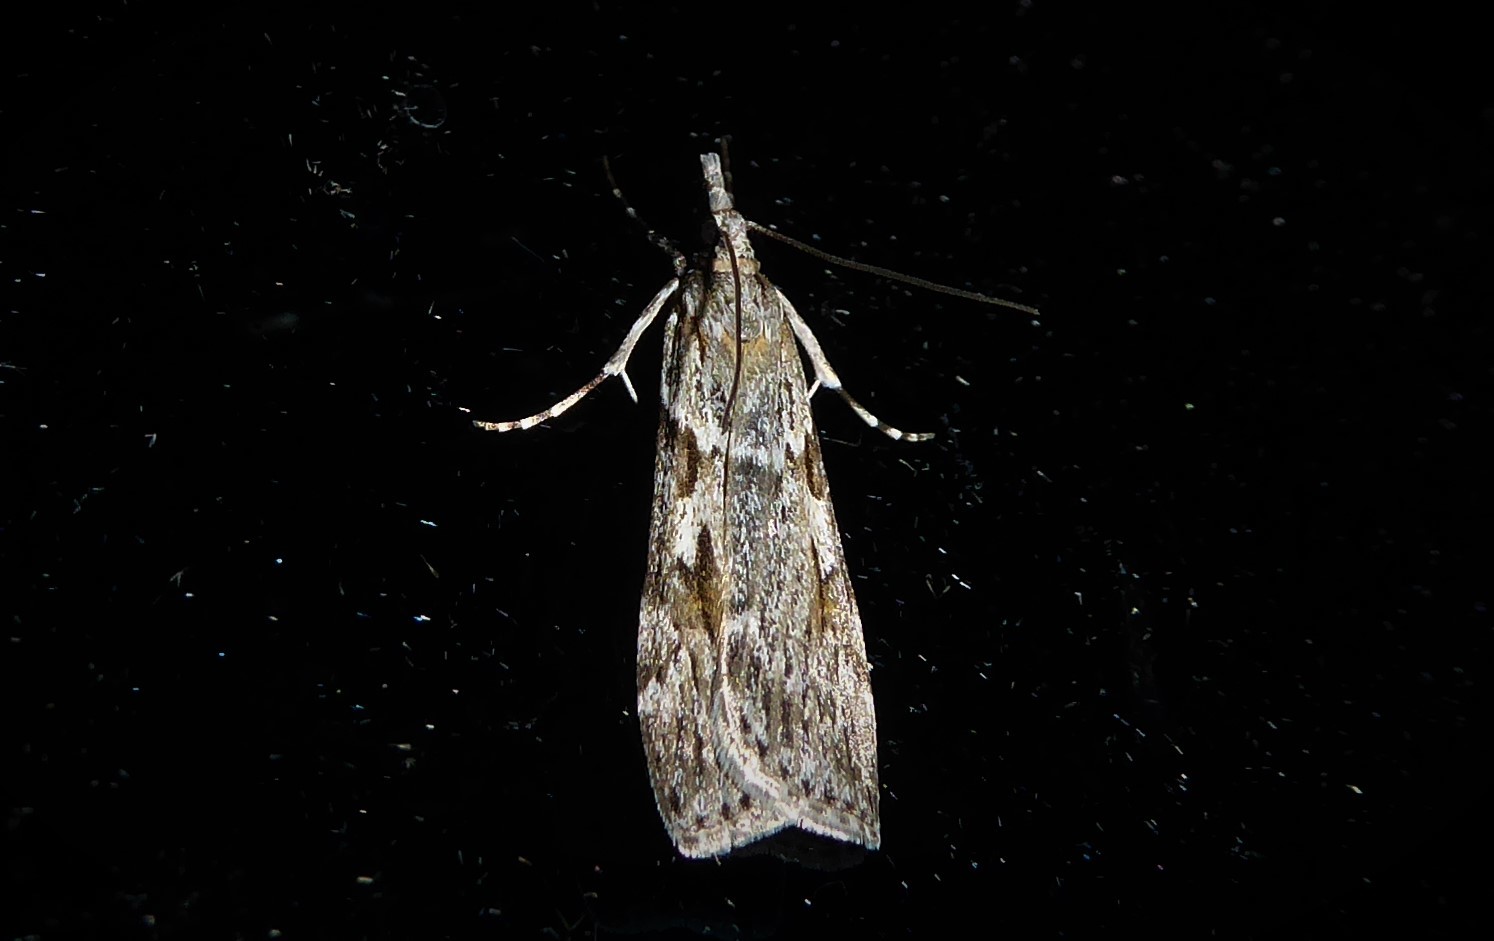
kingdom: Animalia
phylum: Arthropoda
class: Insecta
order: Lepidoptera
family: Crambidae
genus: Scoparia
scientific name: Scoparia halopis
